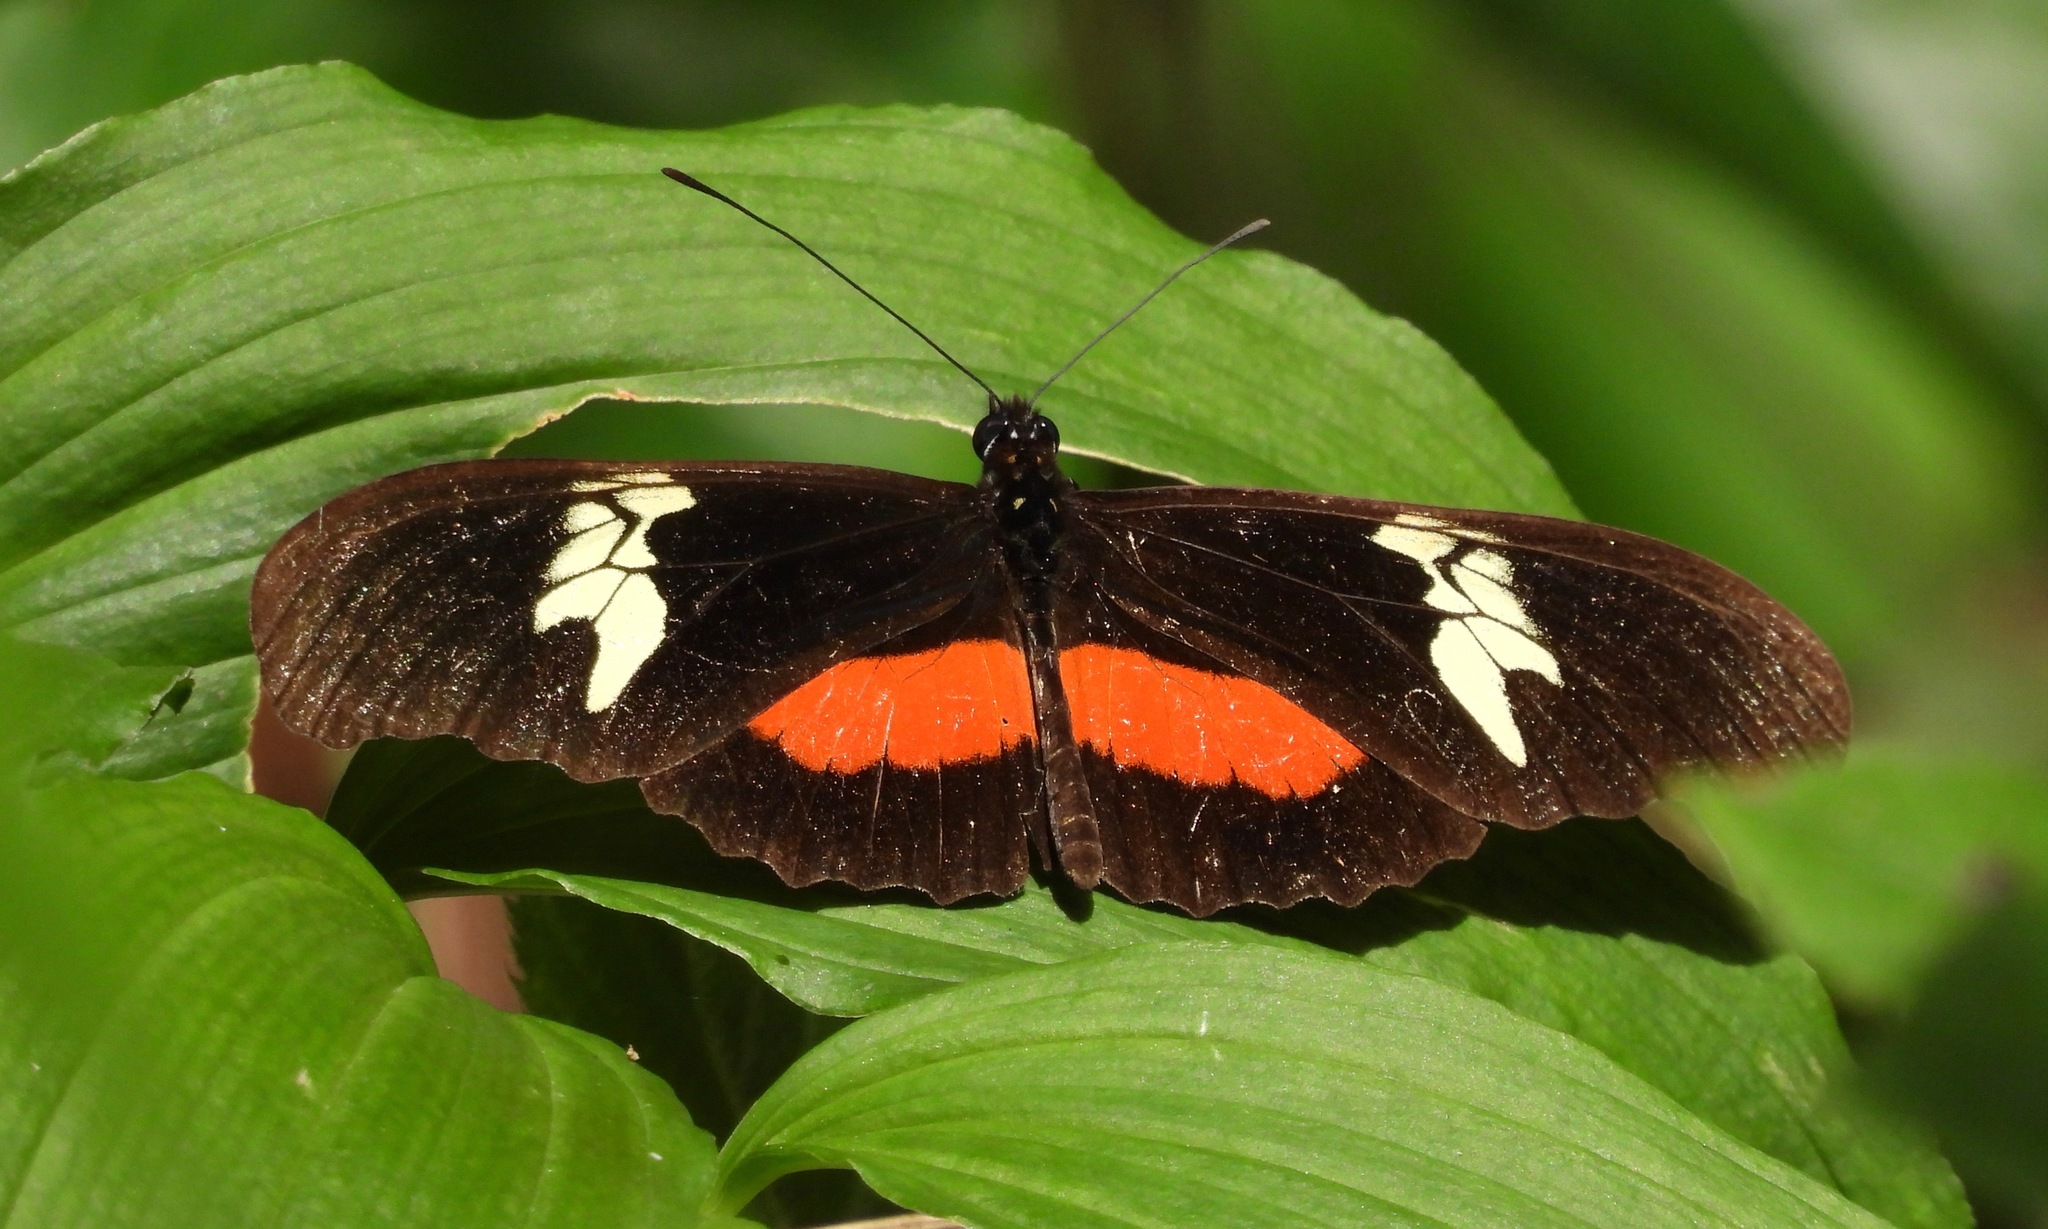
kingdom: Animalia
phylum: Arthropoda
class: Insecta
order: Lepidoptera
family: Nymphalidae
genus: Heliconius
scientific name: Heliconius hortense
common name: Mexican longwing
